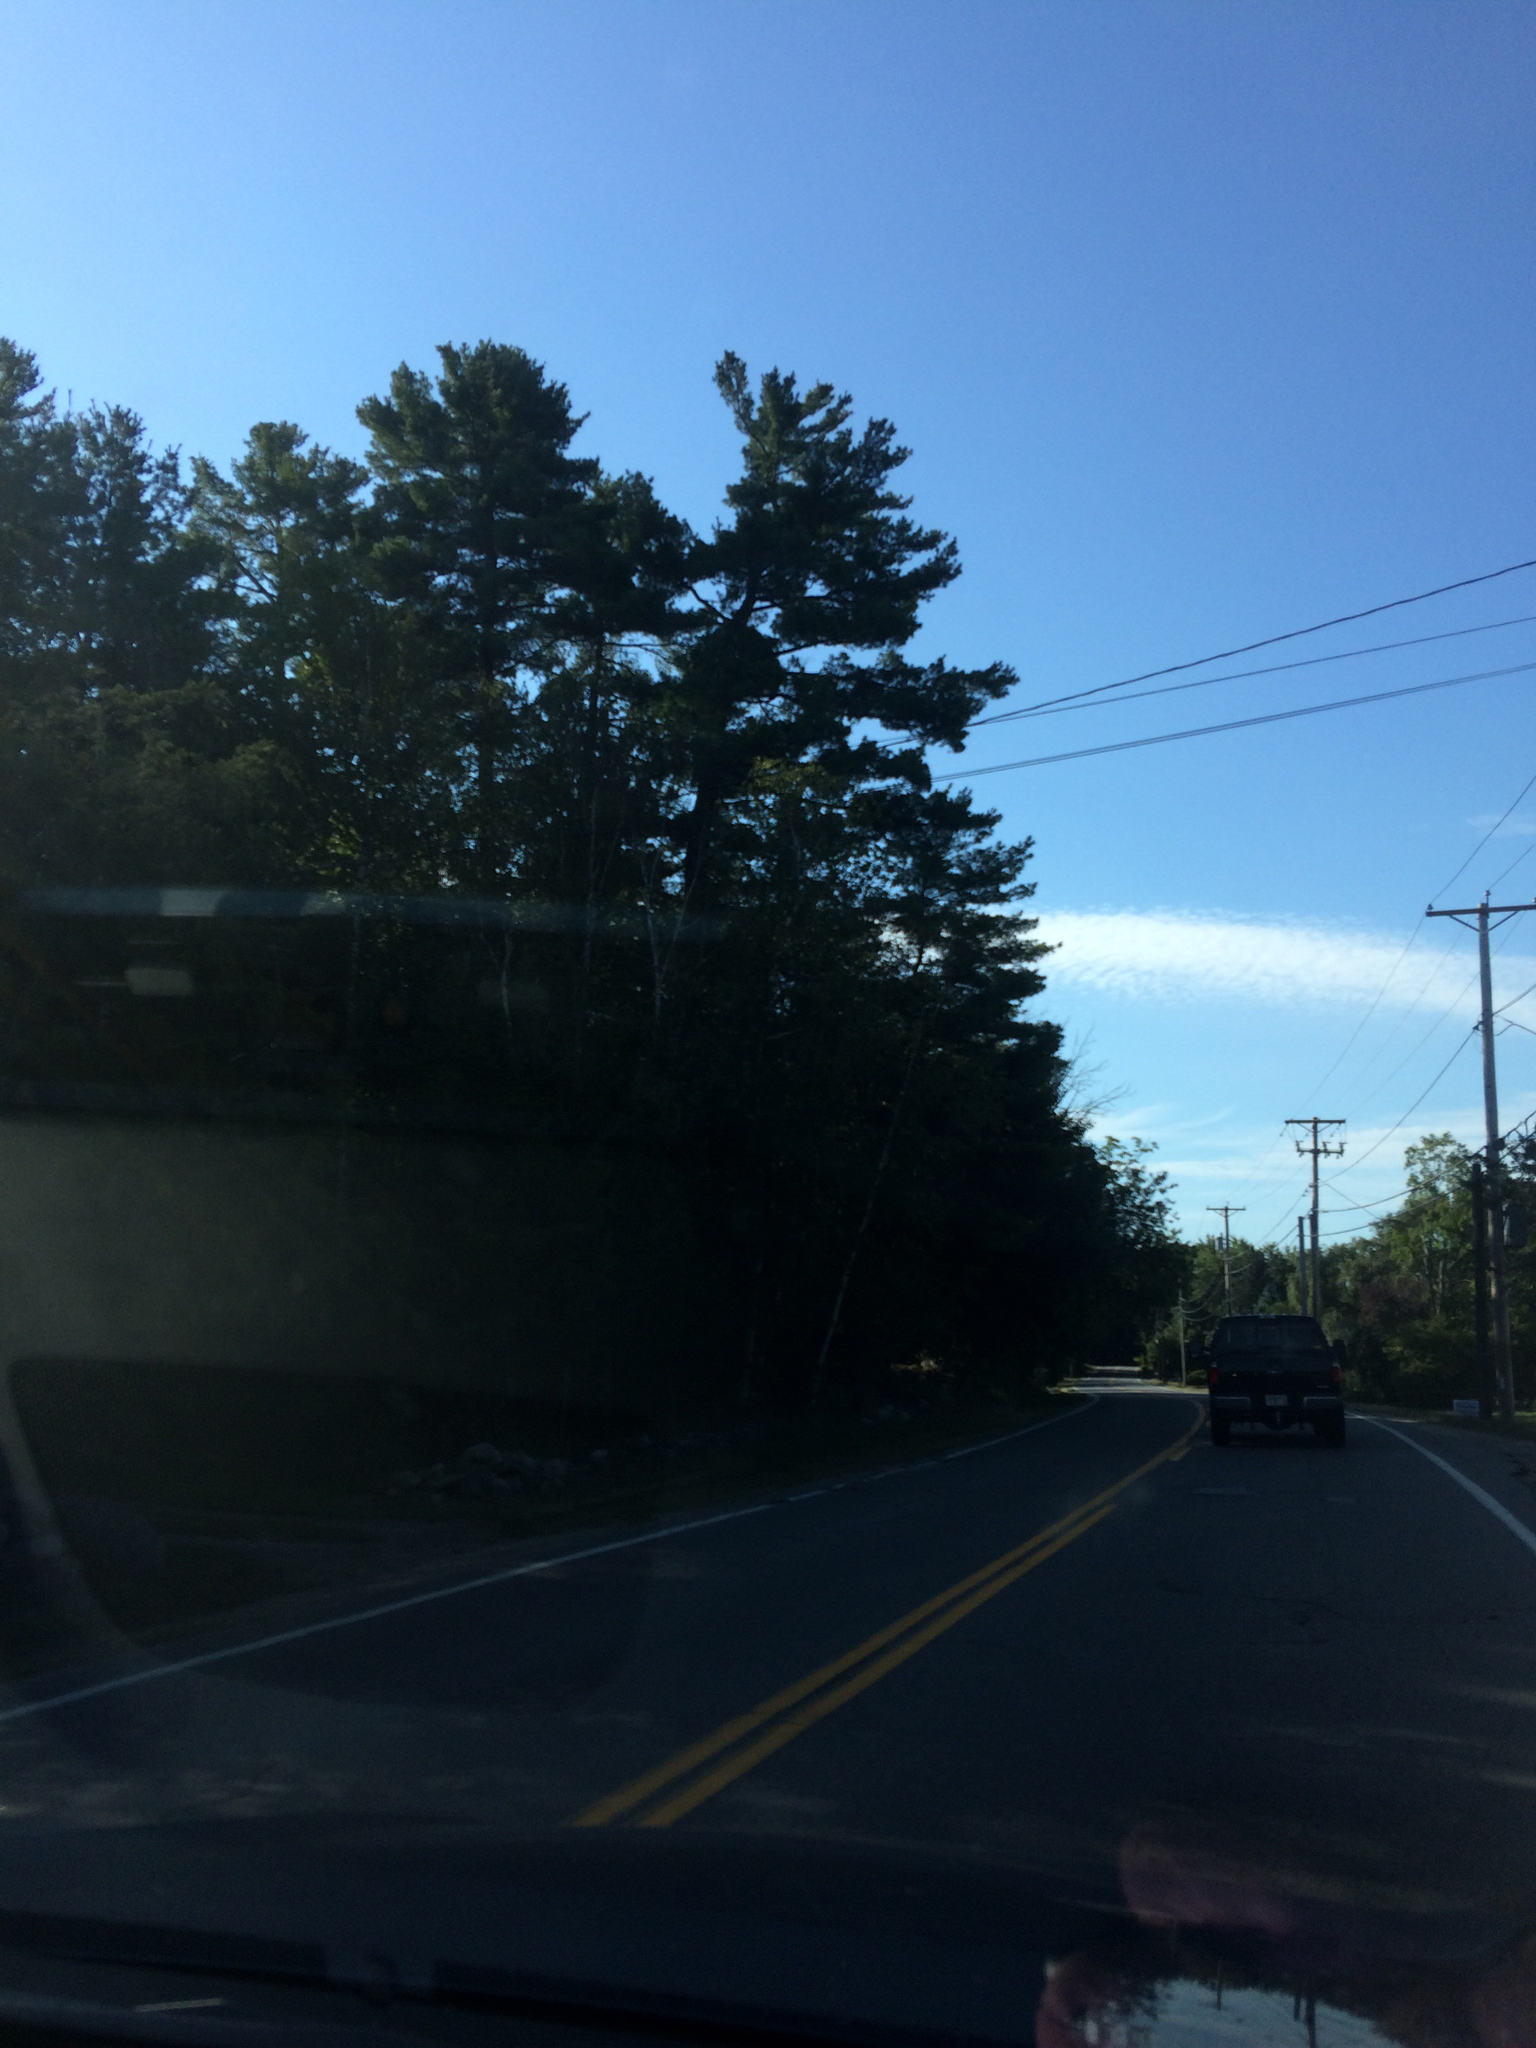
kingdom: Plantae
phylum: Tracheophyta
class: Pinopsida
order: Pinales
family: Pinaceae
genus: Pinus
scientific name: Pinus strobus
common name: Weymouth pine
